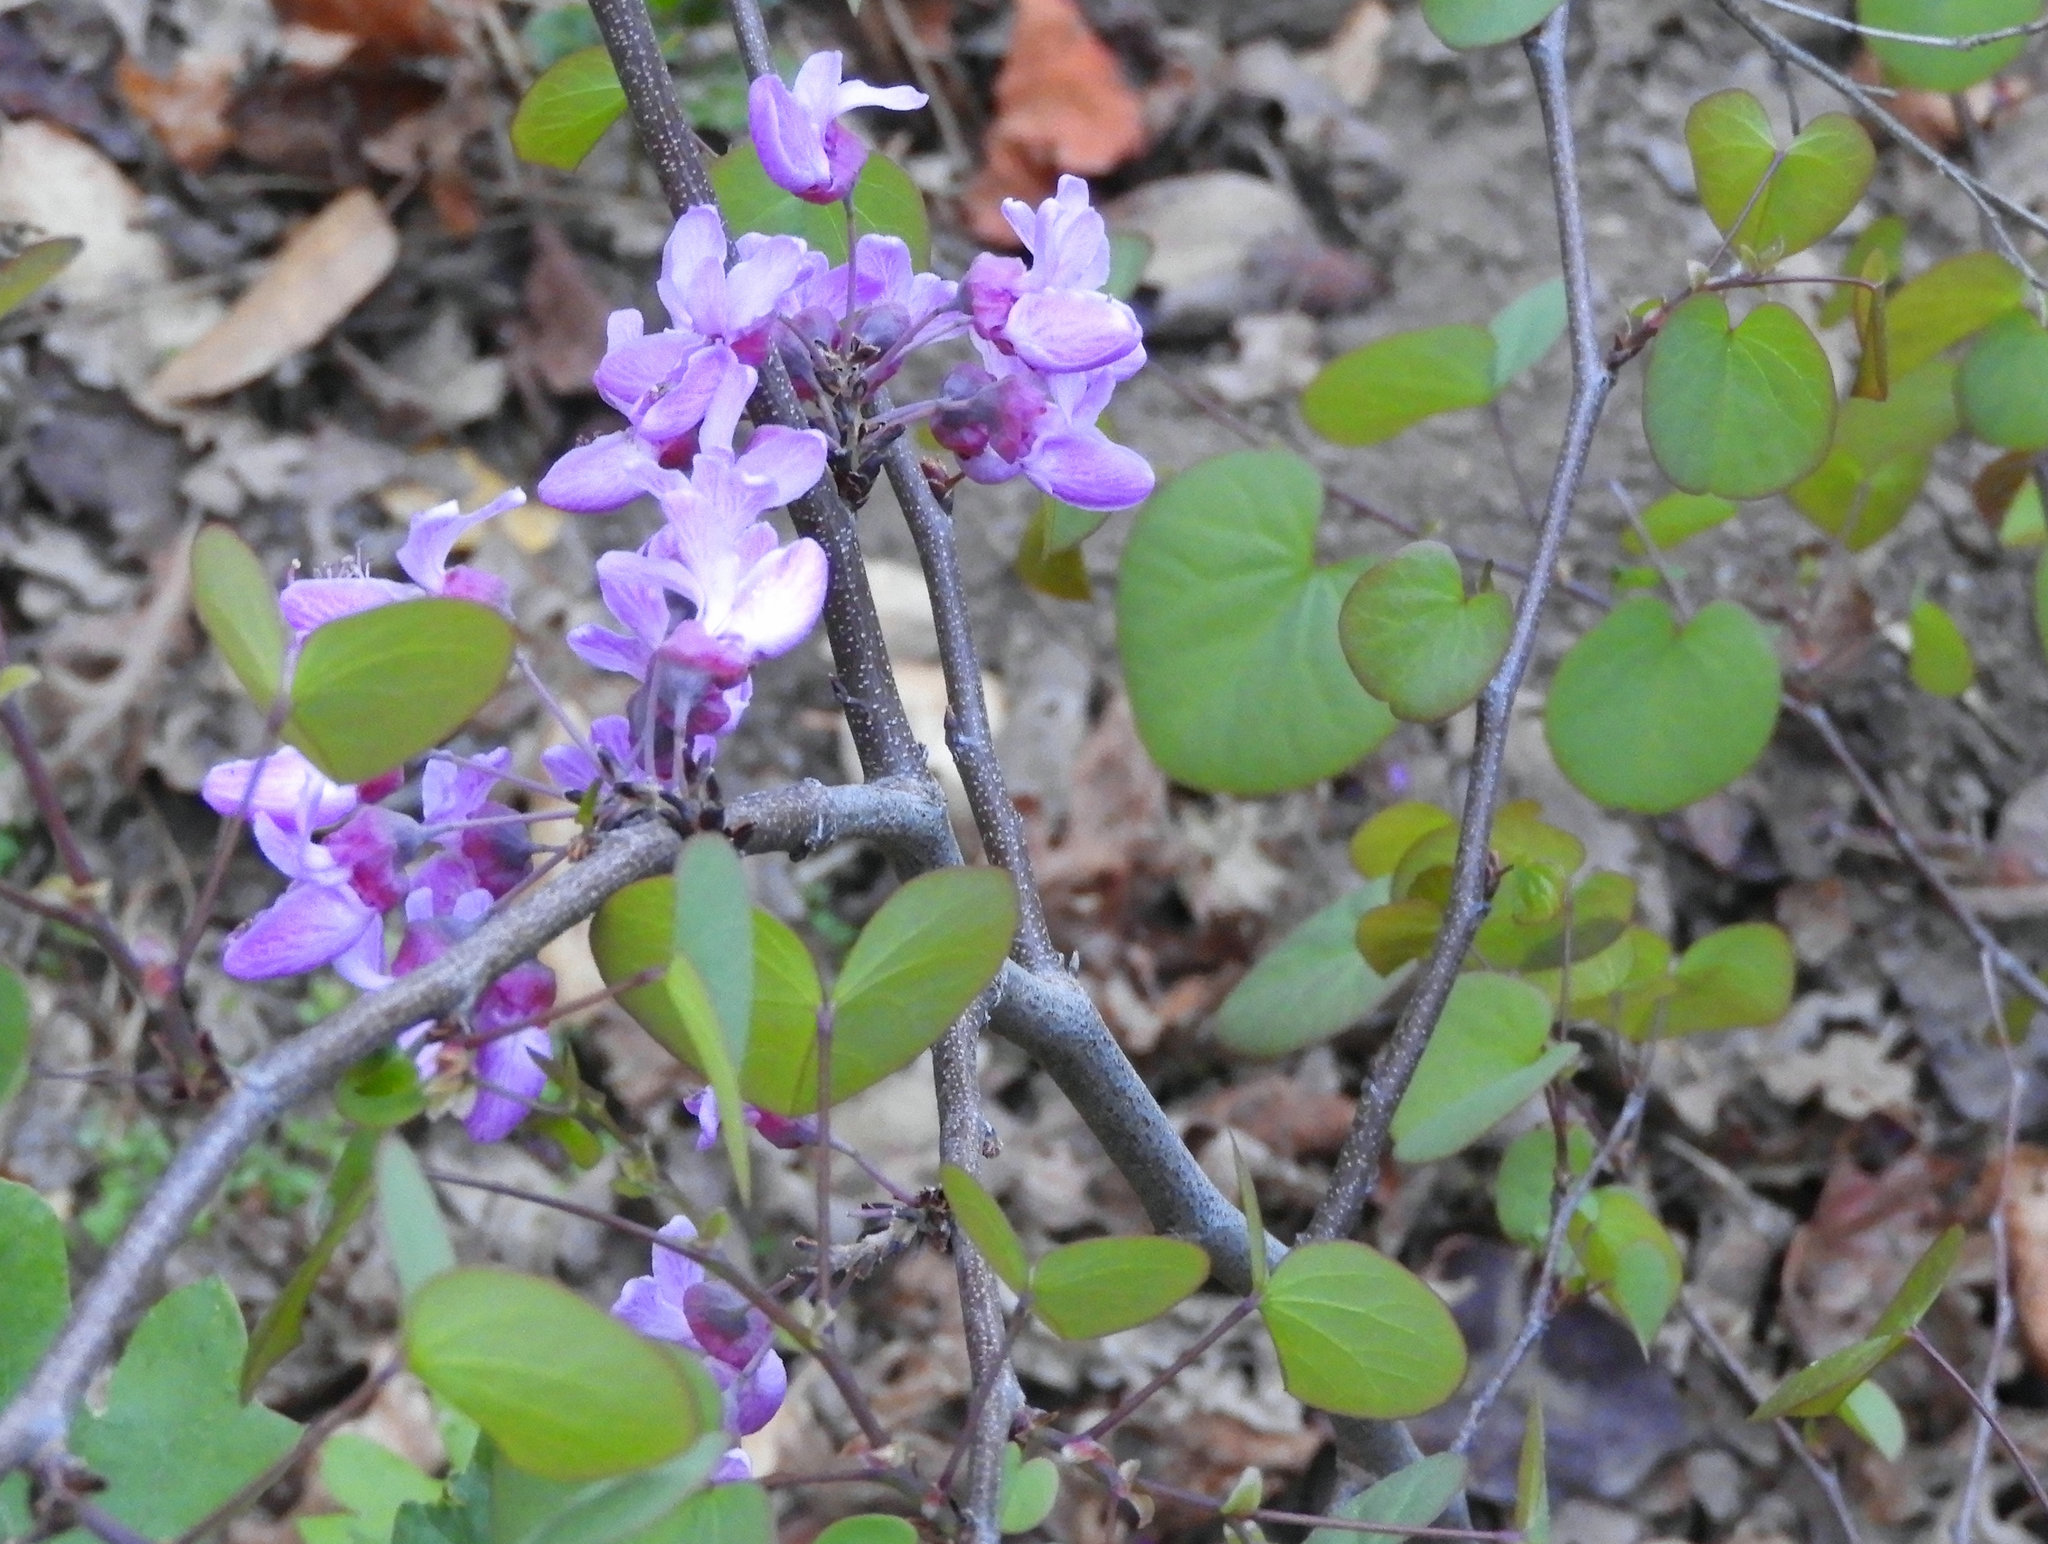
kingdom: Plantae
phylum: Tracheophyta
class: Magnoliopsida
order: Fabales
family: Fabaceae
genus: Cercis
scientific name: Cercis occidentalis
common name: California redbud
